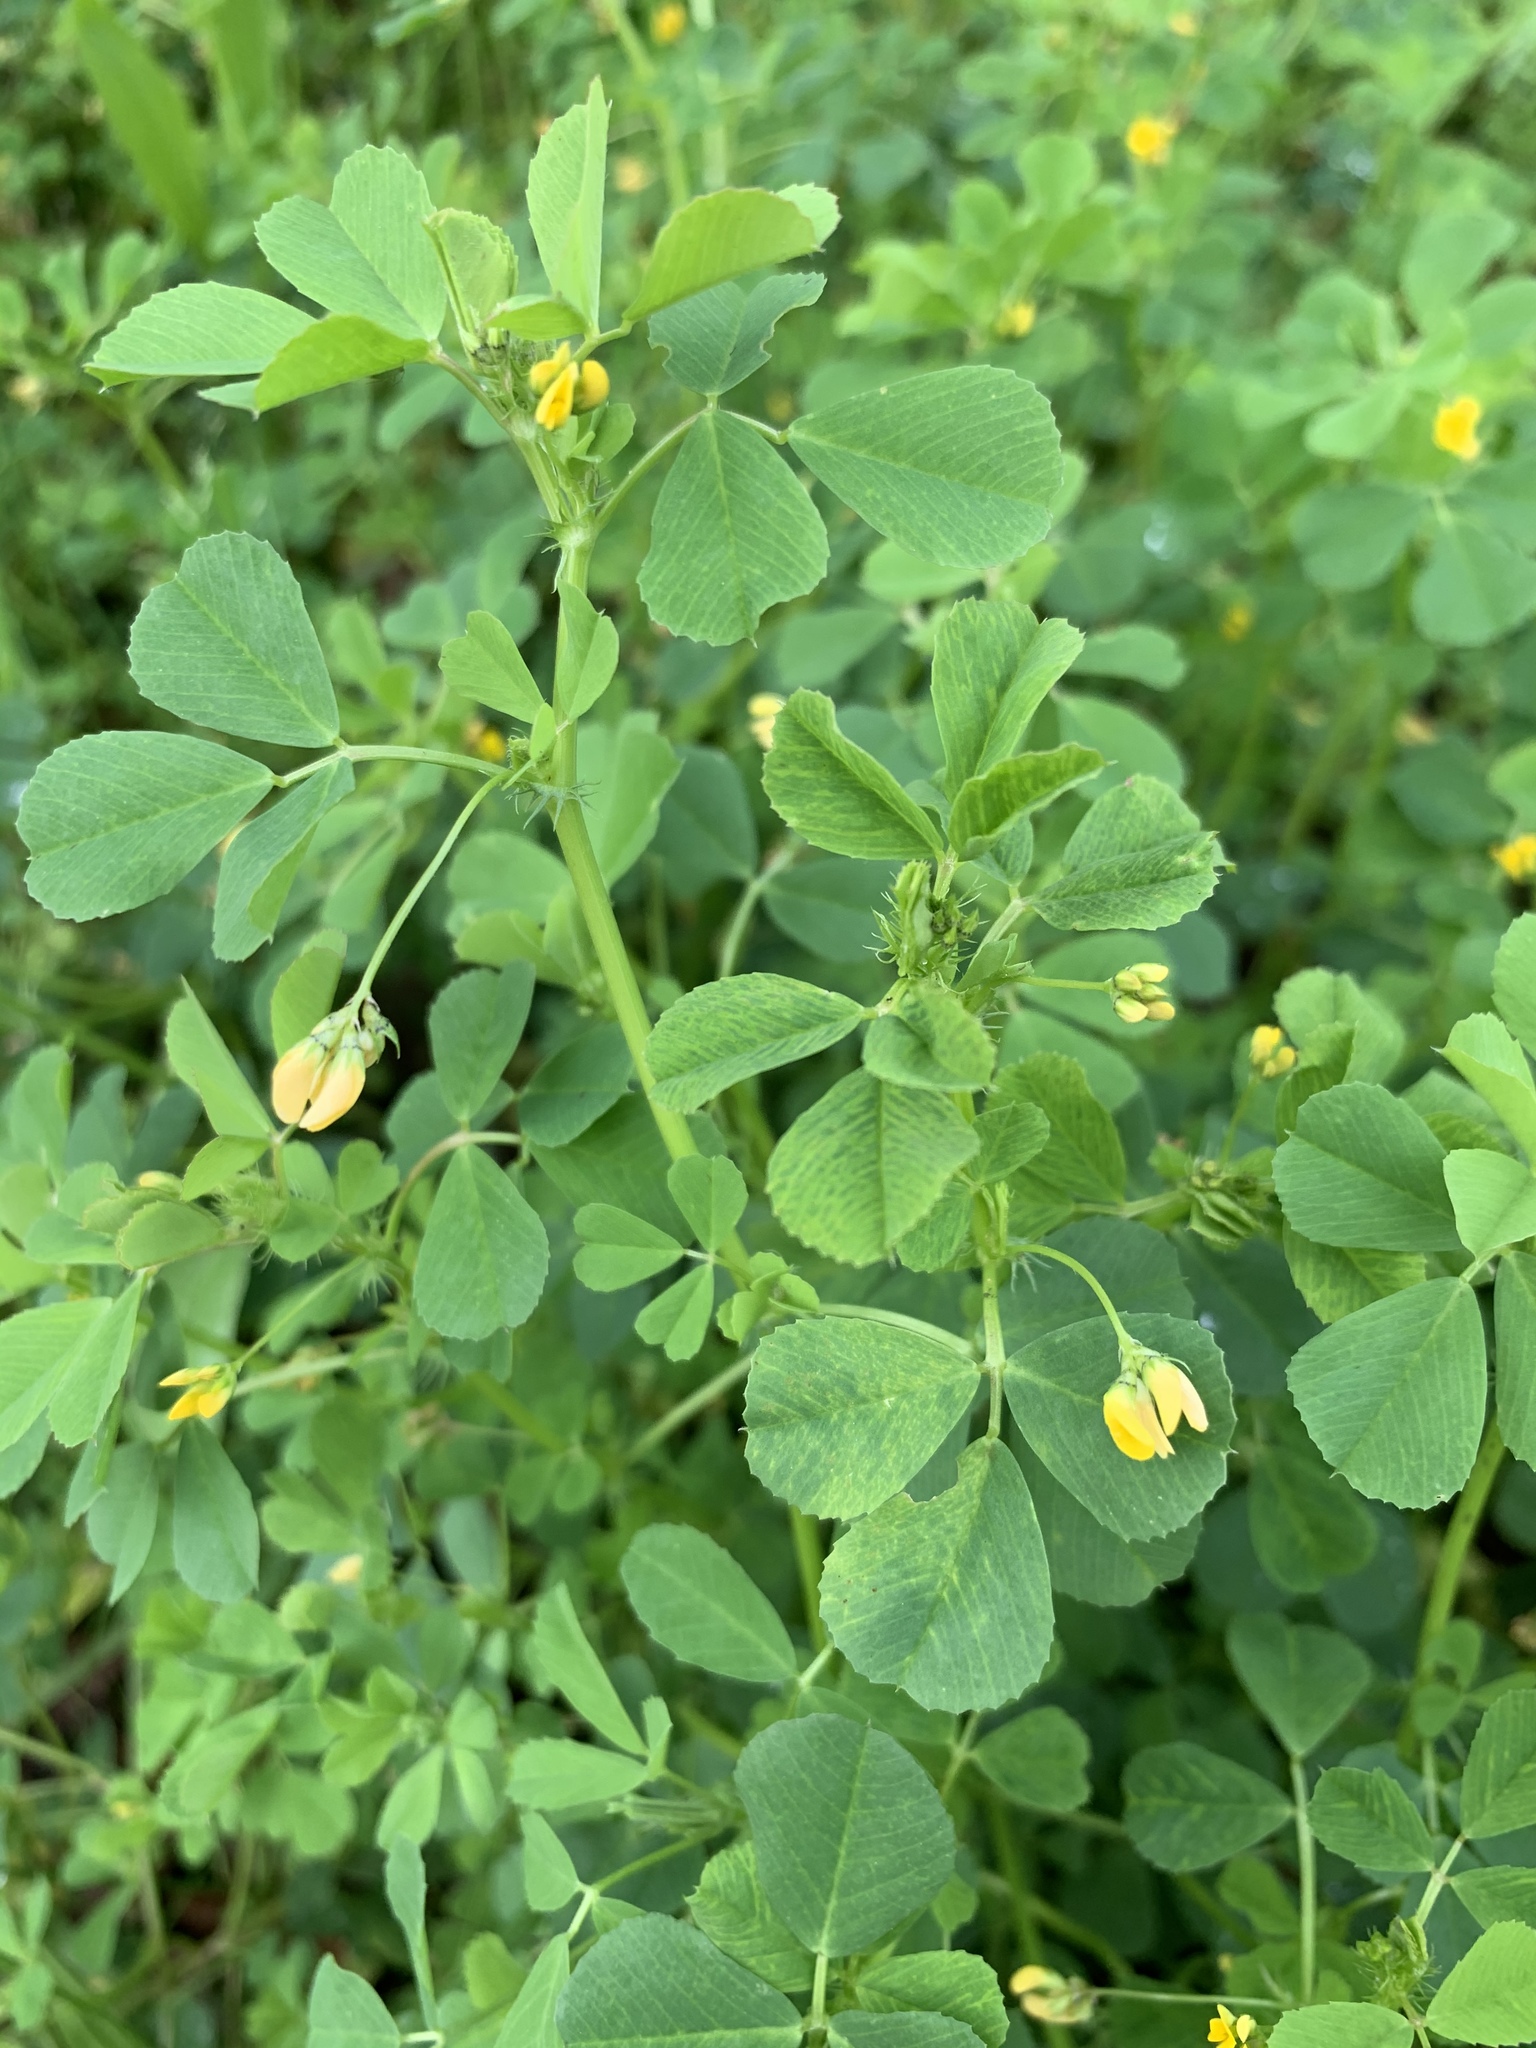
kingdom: Plantae
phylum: Tracheophyta
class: Magnoliopsida
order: Fabales
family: Fabaceae
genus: Medicago
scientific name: Medicago polymorpha
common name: Burclover
